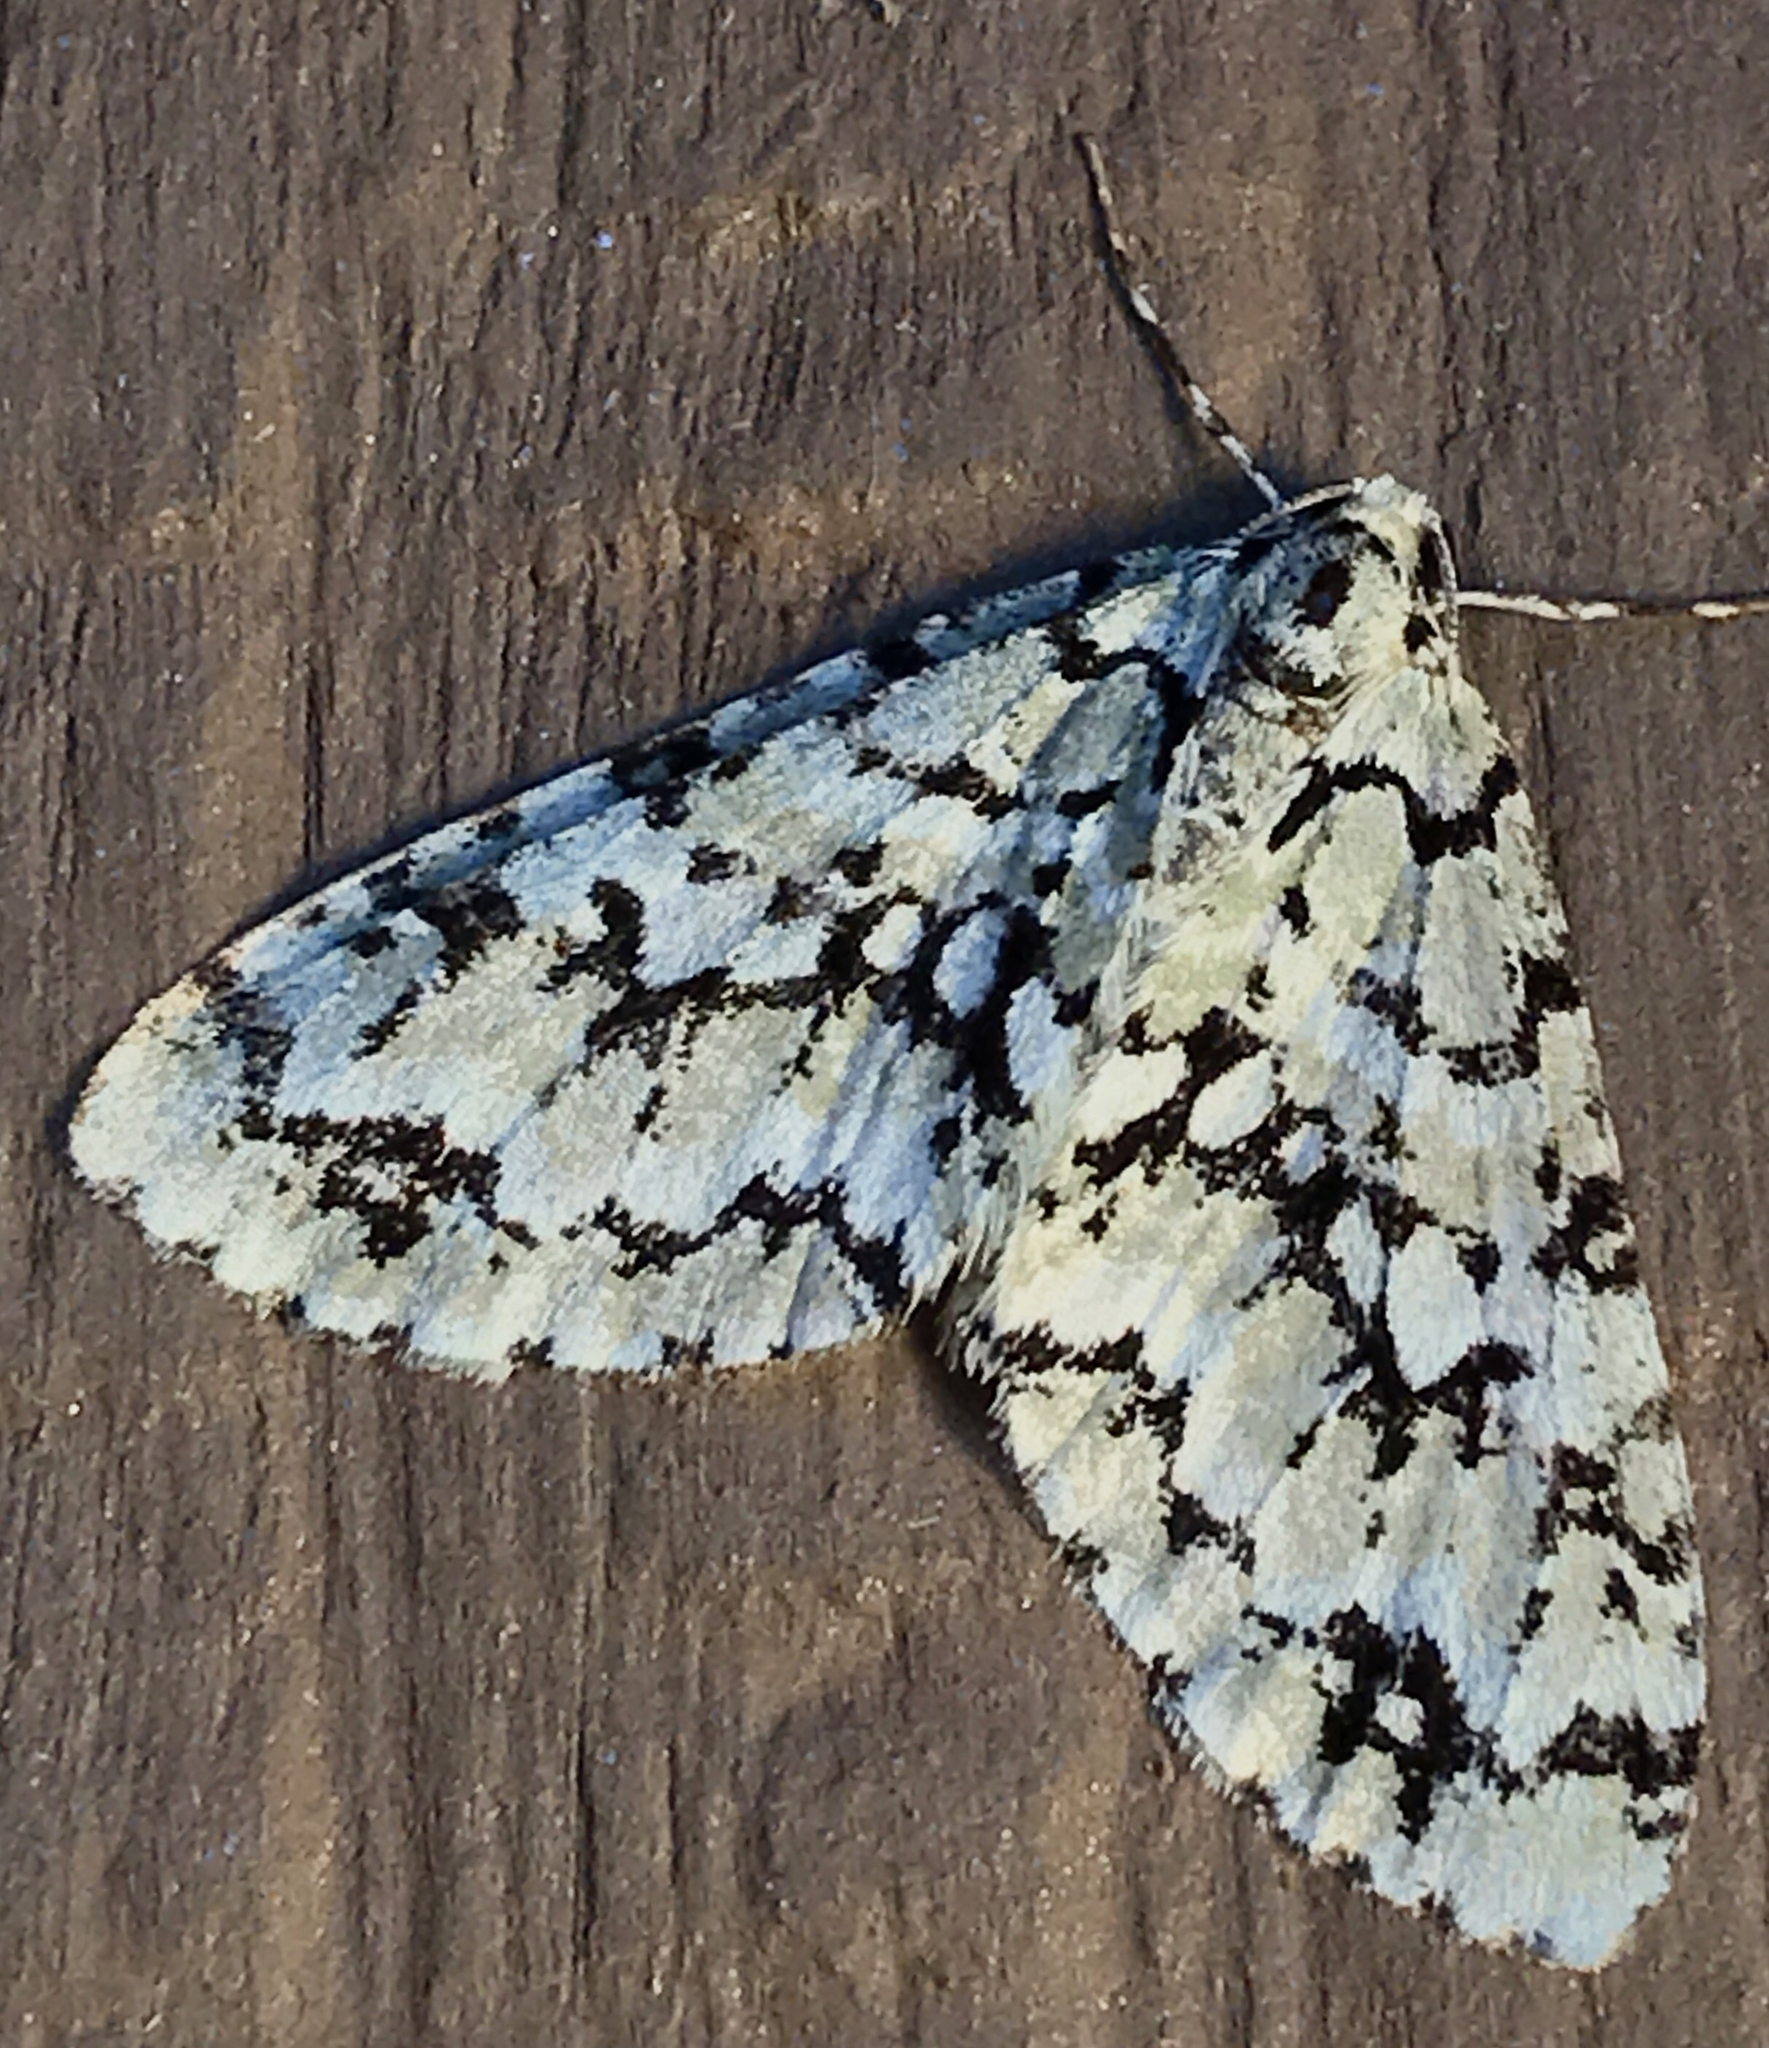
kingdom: Animalia
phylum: Arthropoda
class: Insecta
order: Lepidoptera
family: Geometridae
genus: Cladara
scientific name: Cladara atroliturata
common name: Scribbler
